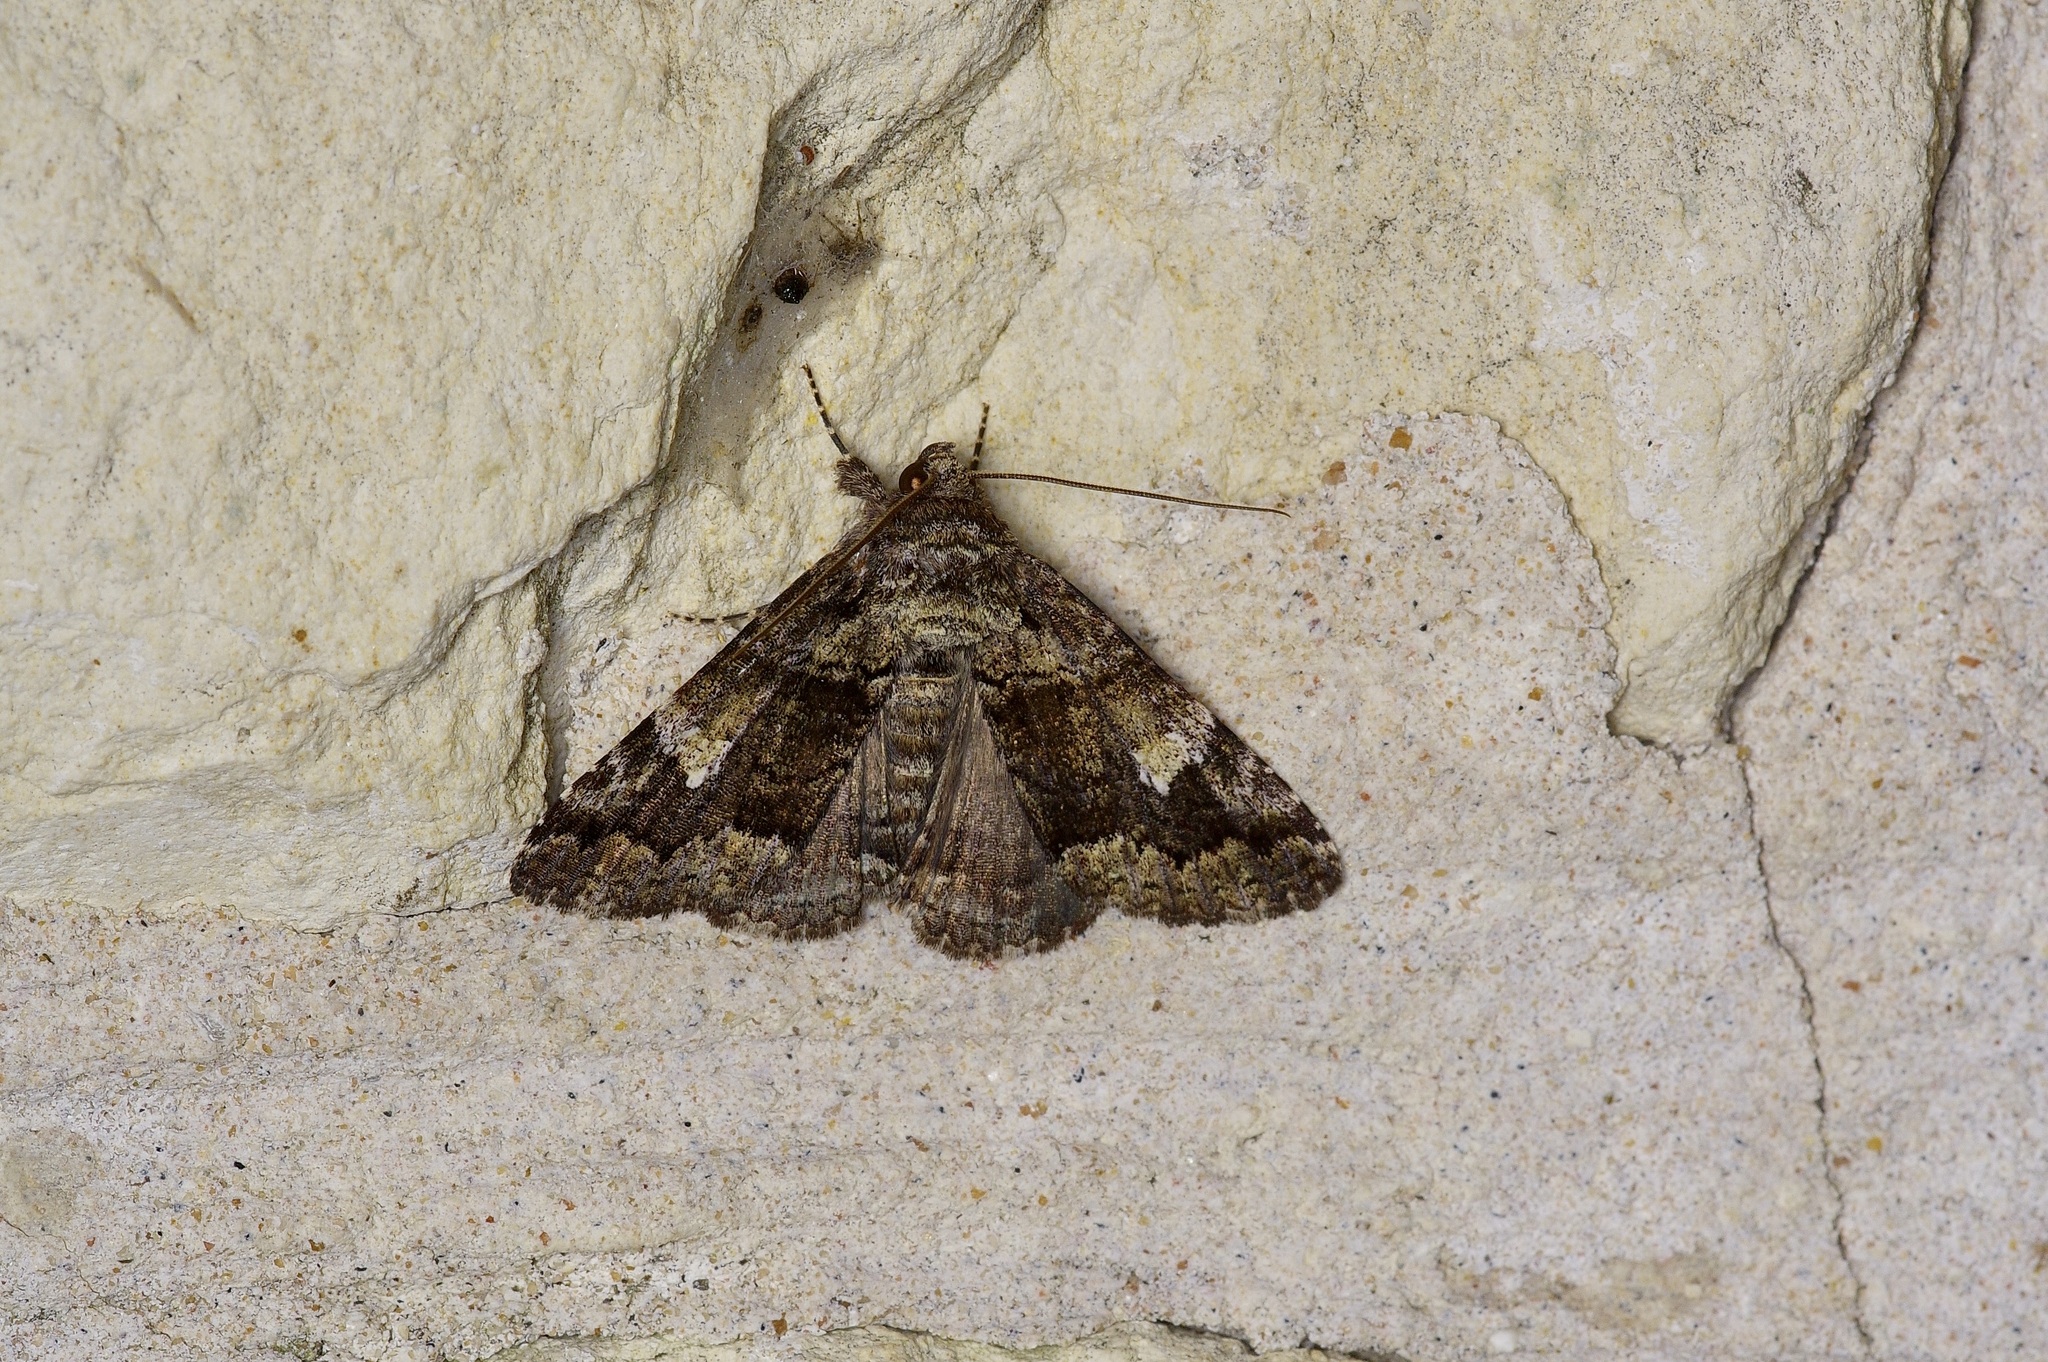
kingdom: Animalia
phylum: Arthropoda
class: Insecta
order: Lepidoptera
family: Erebidae
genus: Metria
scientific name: Metria amella
